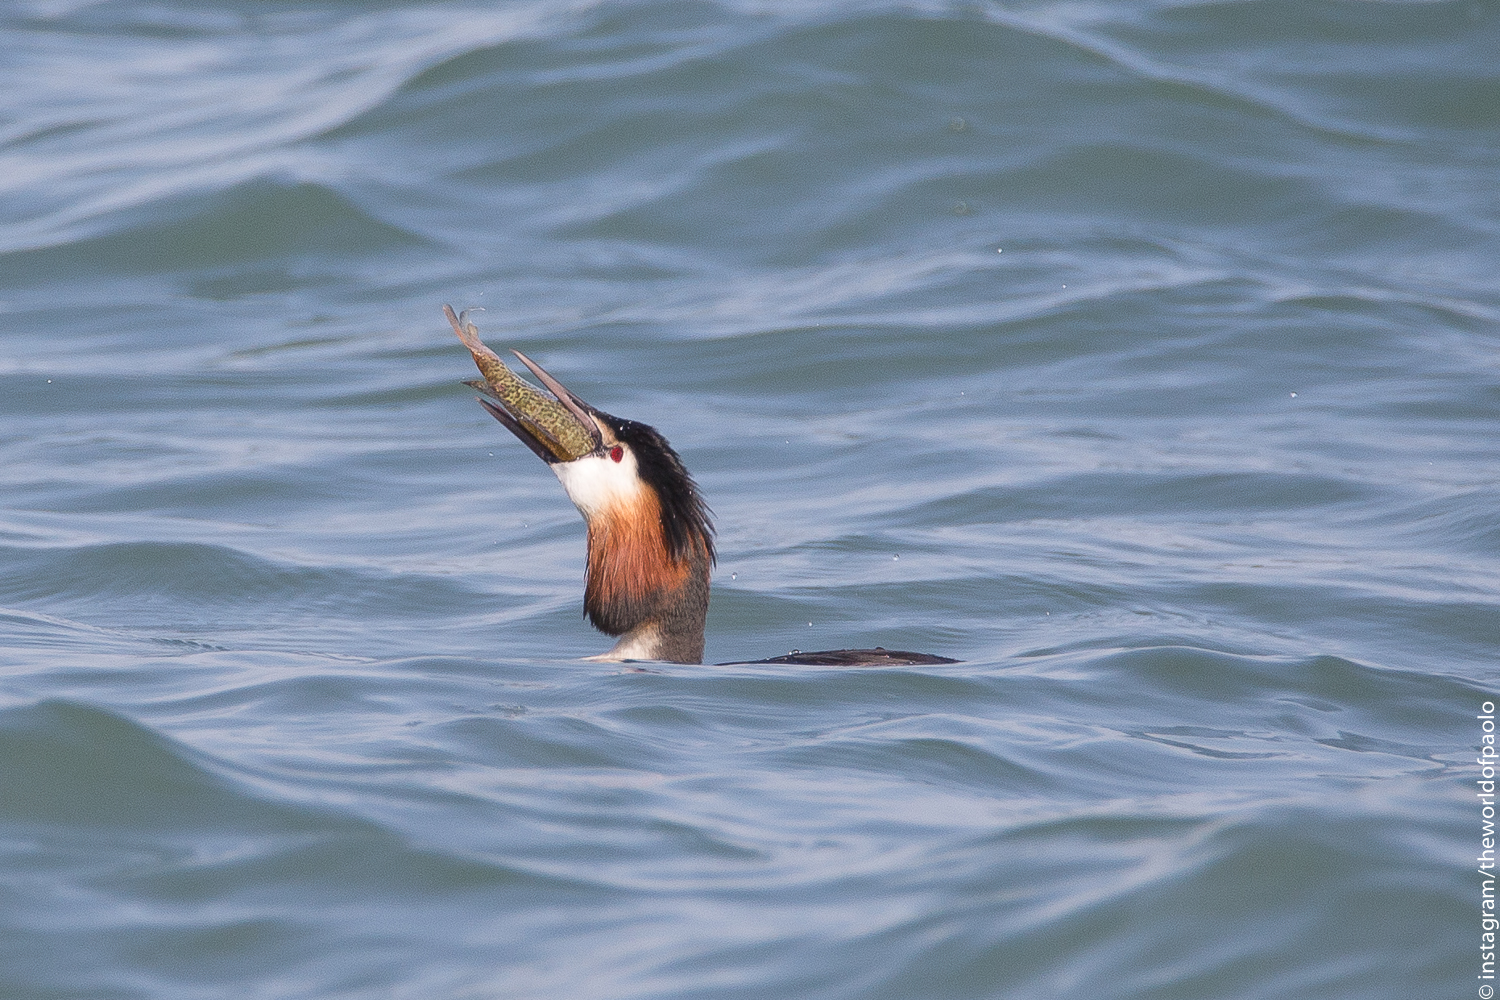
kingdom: Animalia
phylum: Chordata
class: Aves
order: Podicipediformes
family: Podicipedidae
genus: Podiceps
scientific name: Podiceps cristatus
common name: Great crested grebe
